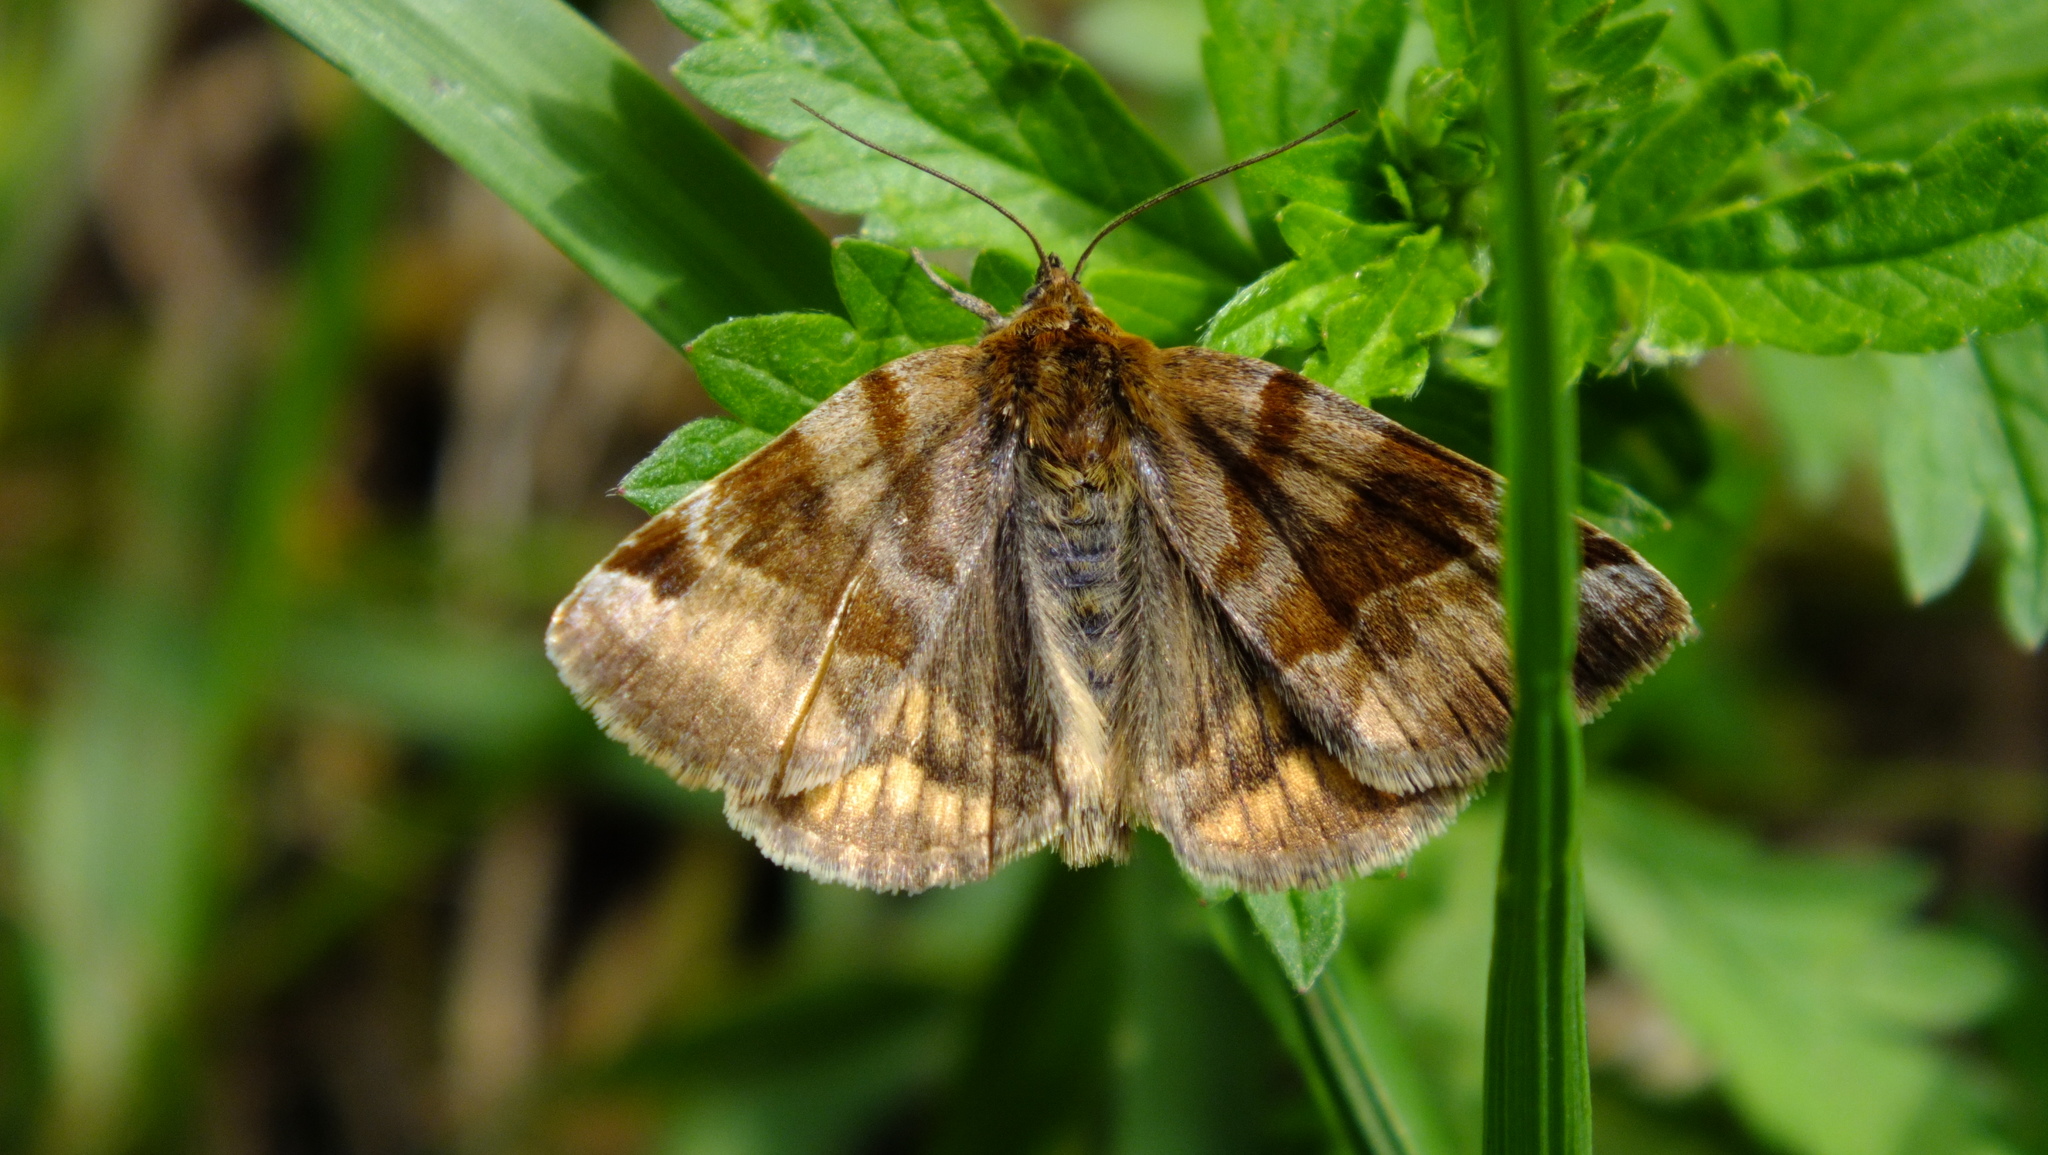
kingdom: Animalia
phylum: Arthropoda
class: Insecta
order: Lepidoptera
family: Erebidae
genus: Euclidia
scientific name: Euclidia glyphica
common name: Burnet companion
